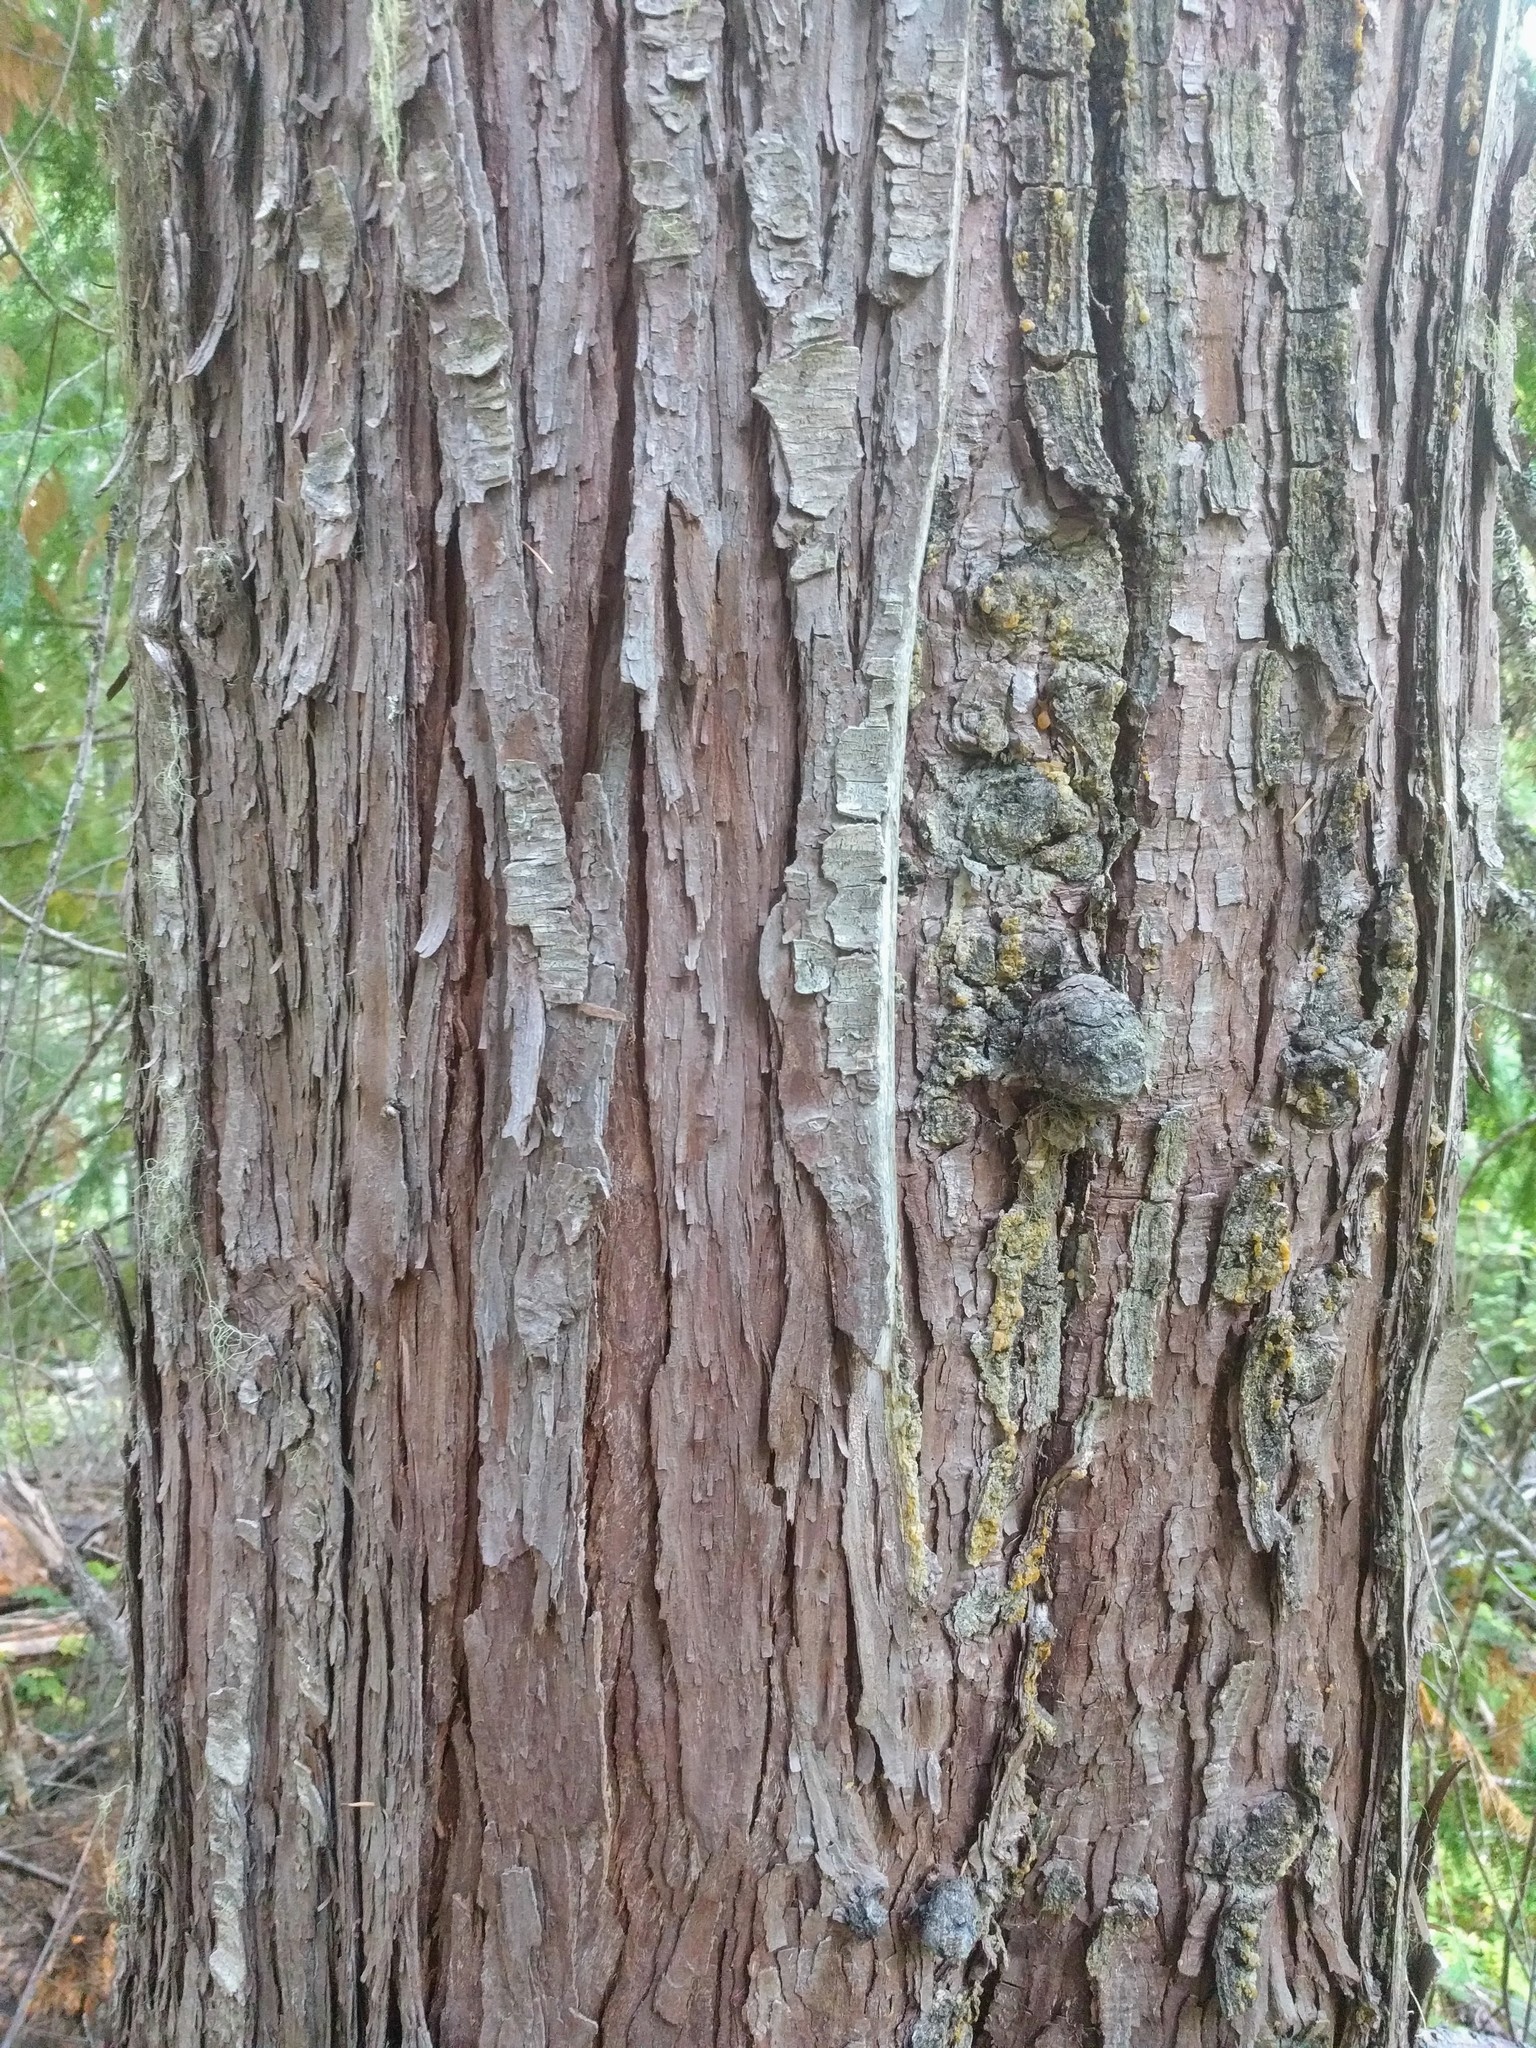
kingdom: Plantae
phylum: Tracheophyta
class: Pinopsida
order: Pinales
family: Cupressaceae
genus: Chamaecyparis
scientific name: Chamaecyparis lawsoniana
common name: Lawson's cypress
